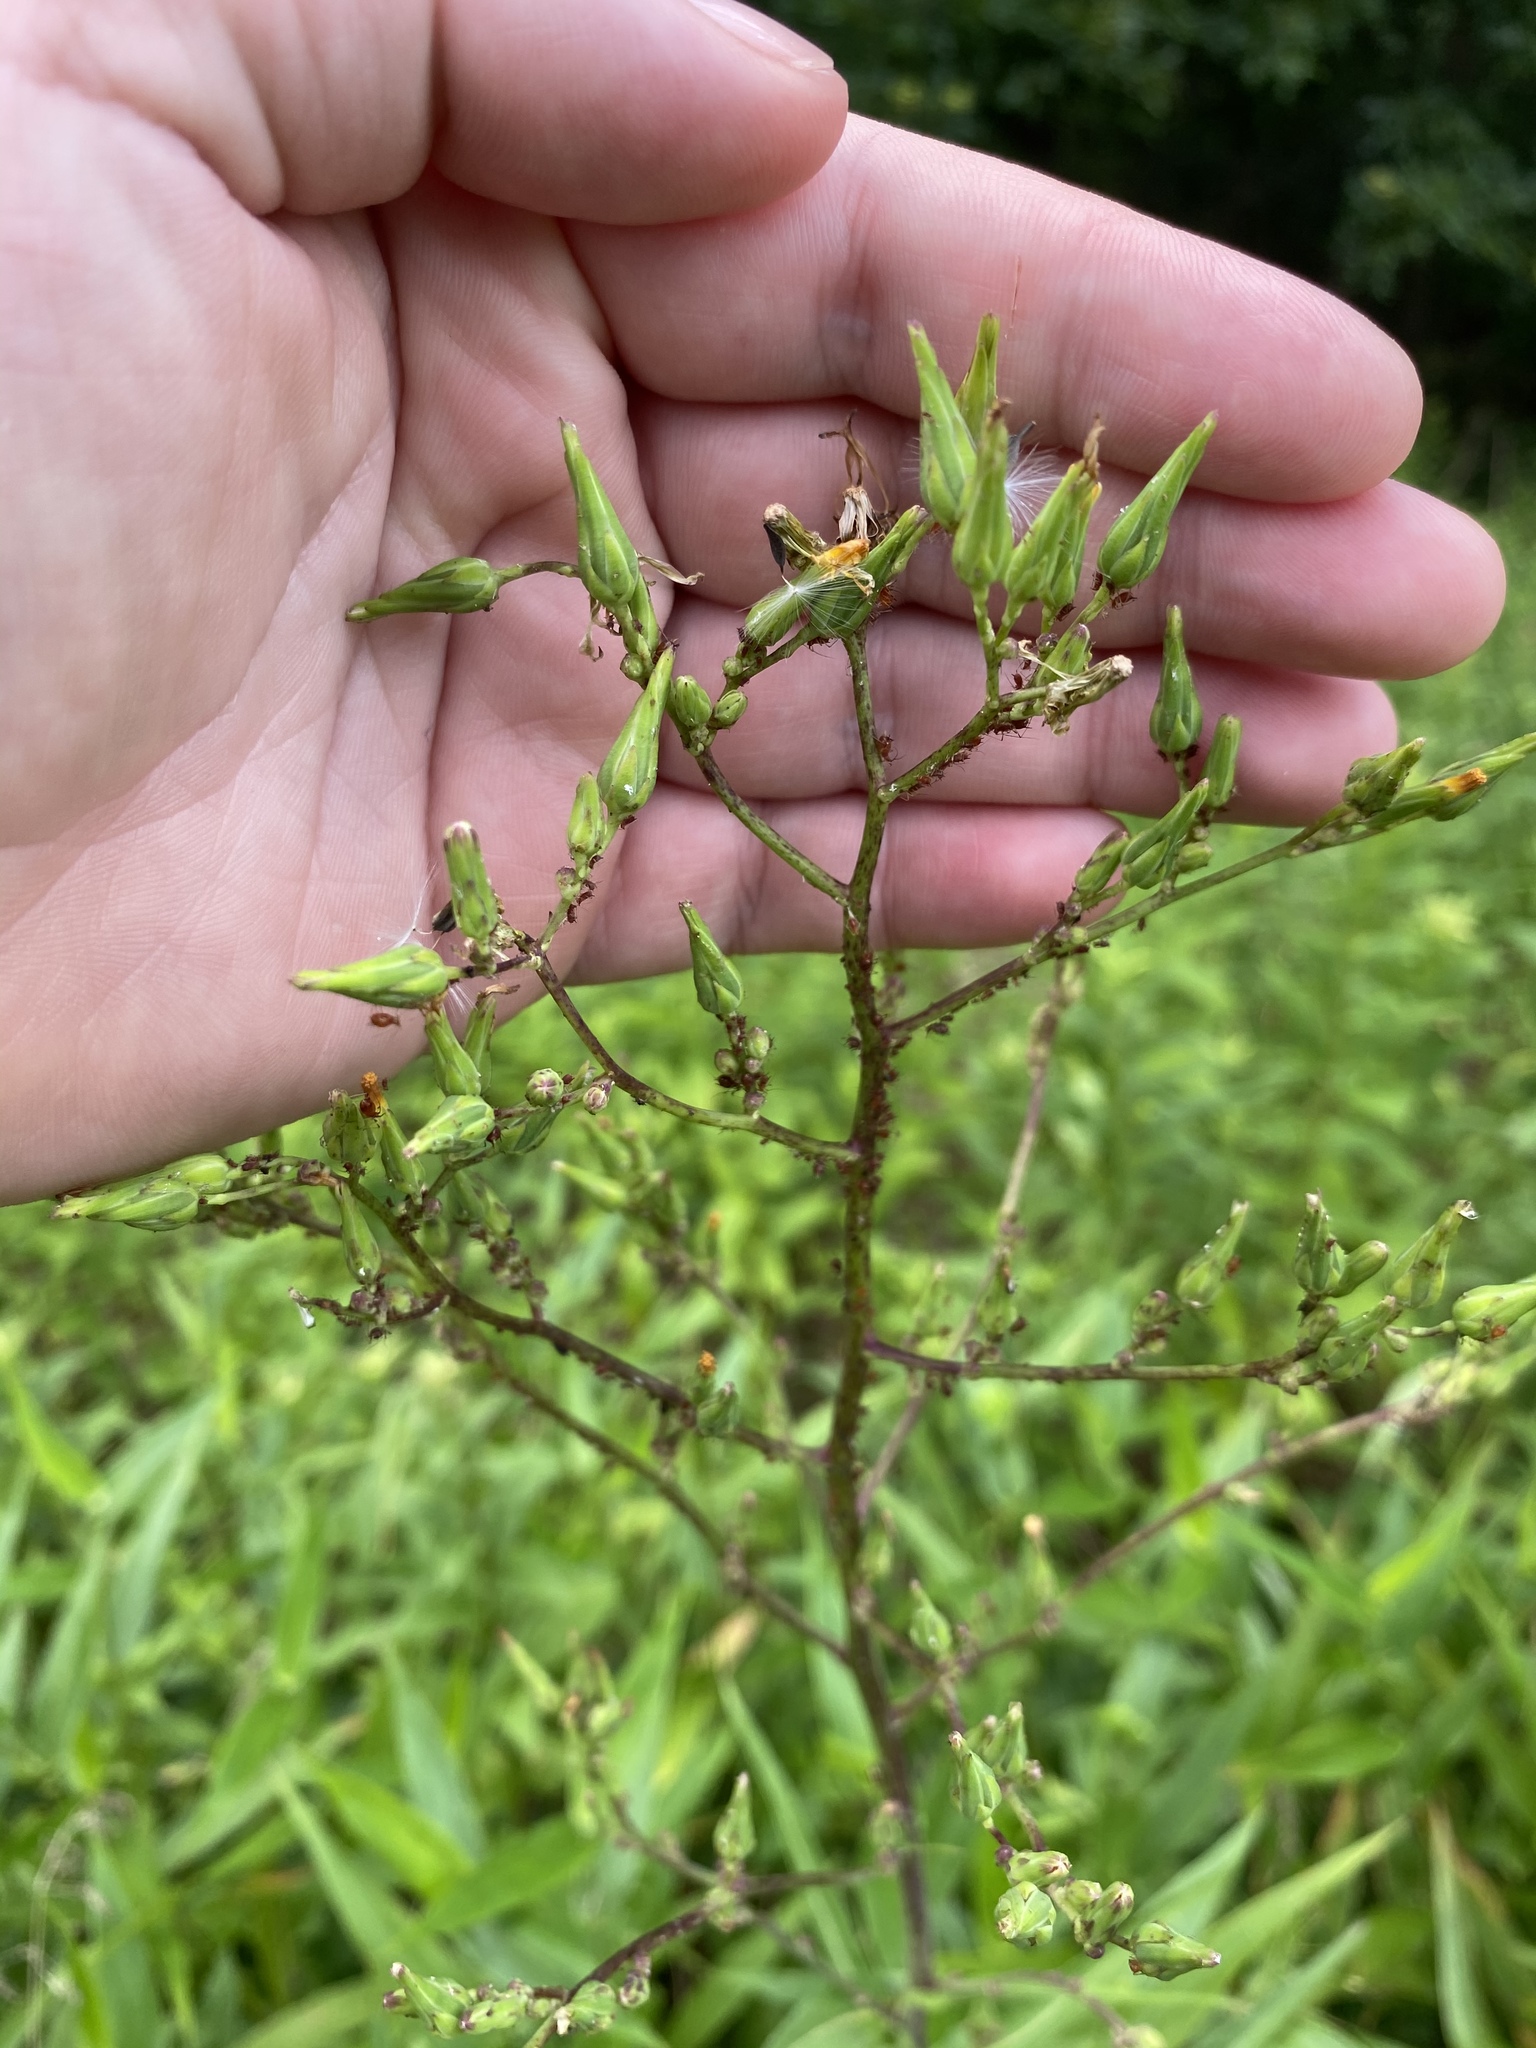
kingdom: Plantae
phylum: Tracheophyta
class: Magnoliopsida
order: Asterales
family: Asteraceae
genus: Lactuca
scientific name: Lactuca canadensis
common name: Canada lettuce
